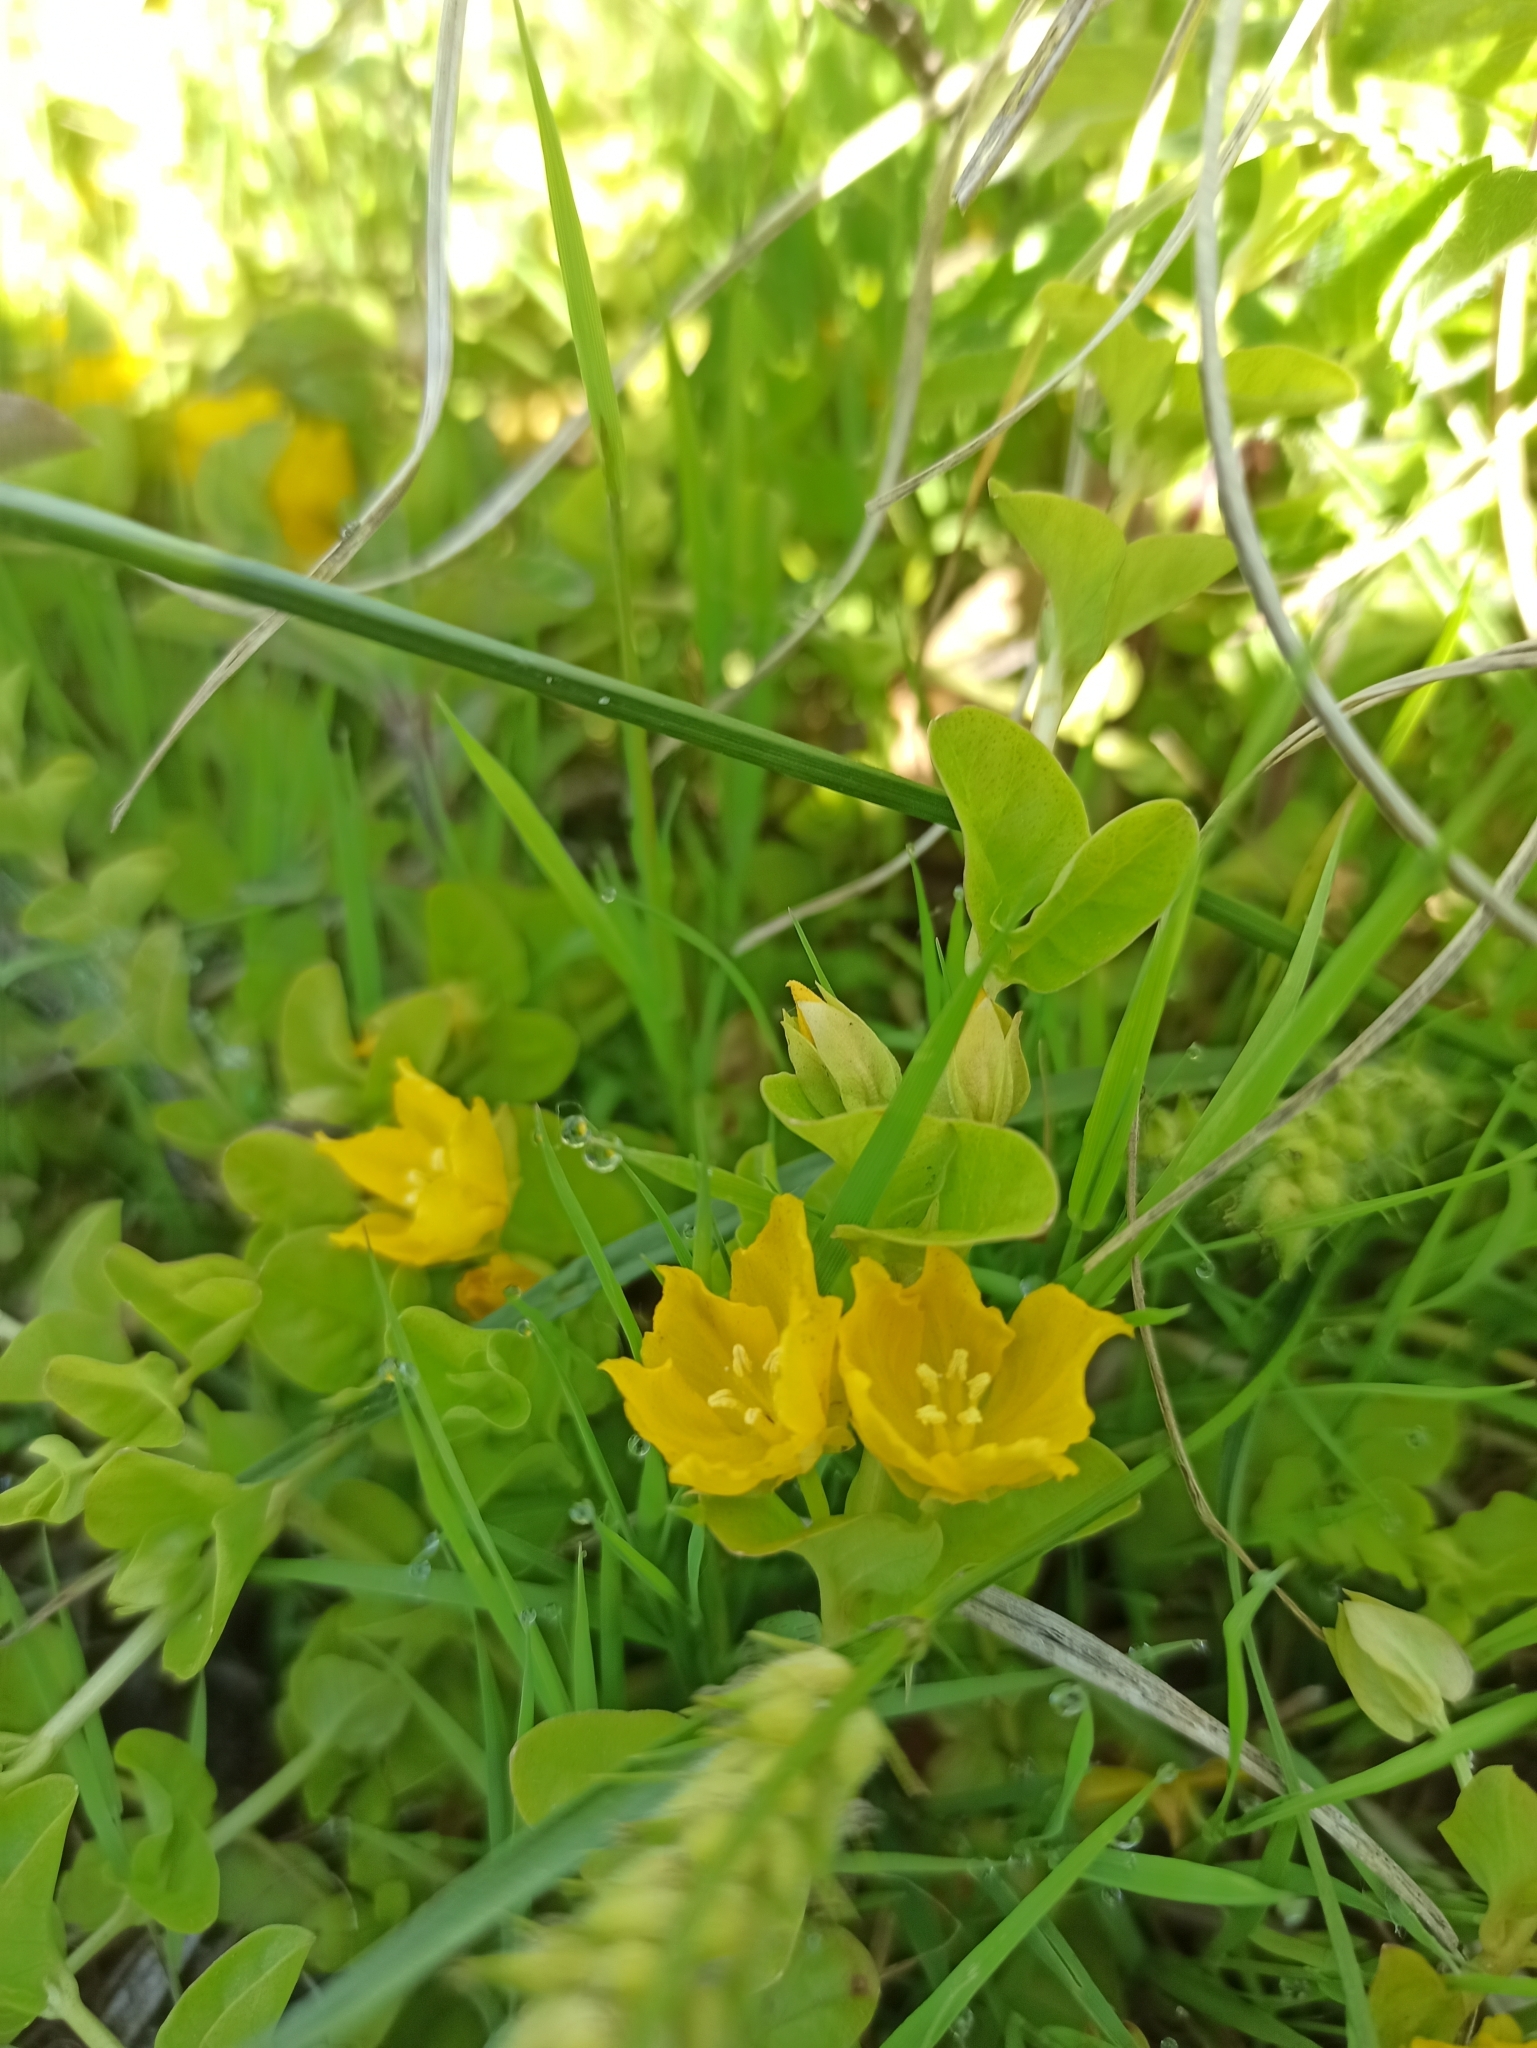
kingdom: Plantae
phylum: Tracheophyta
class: Magnoliopsida
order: Ericales
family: Primulaceae
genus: Lysimachia
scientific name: Lysimachia nummularia
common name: Moneywort
